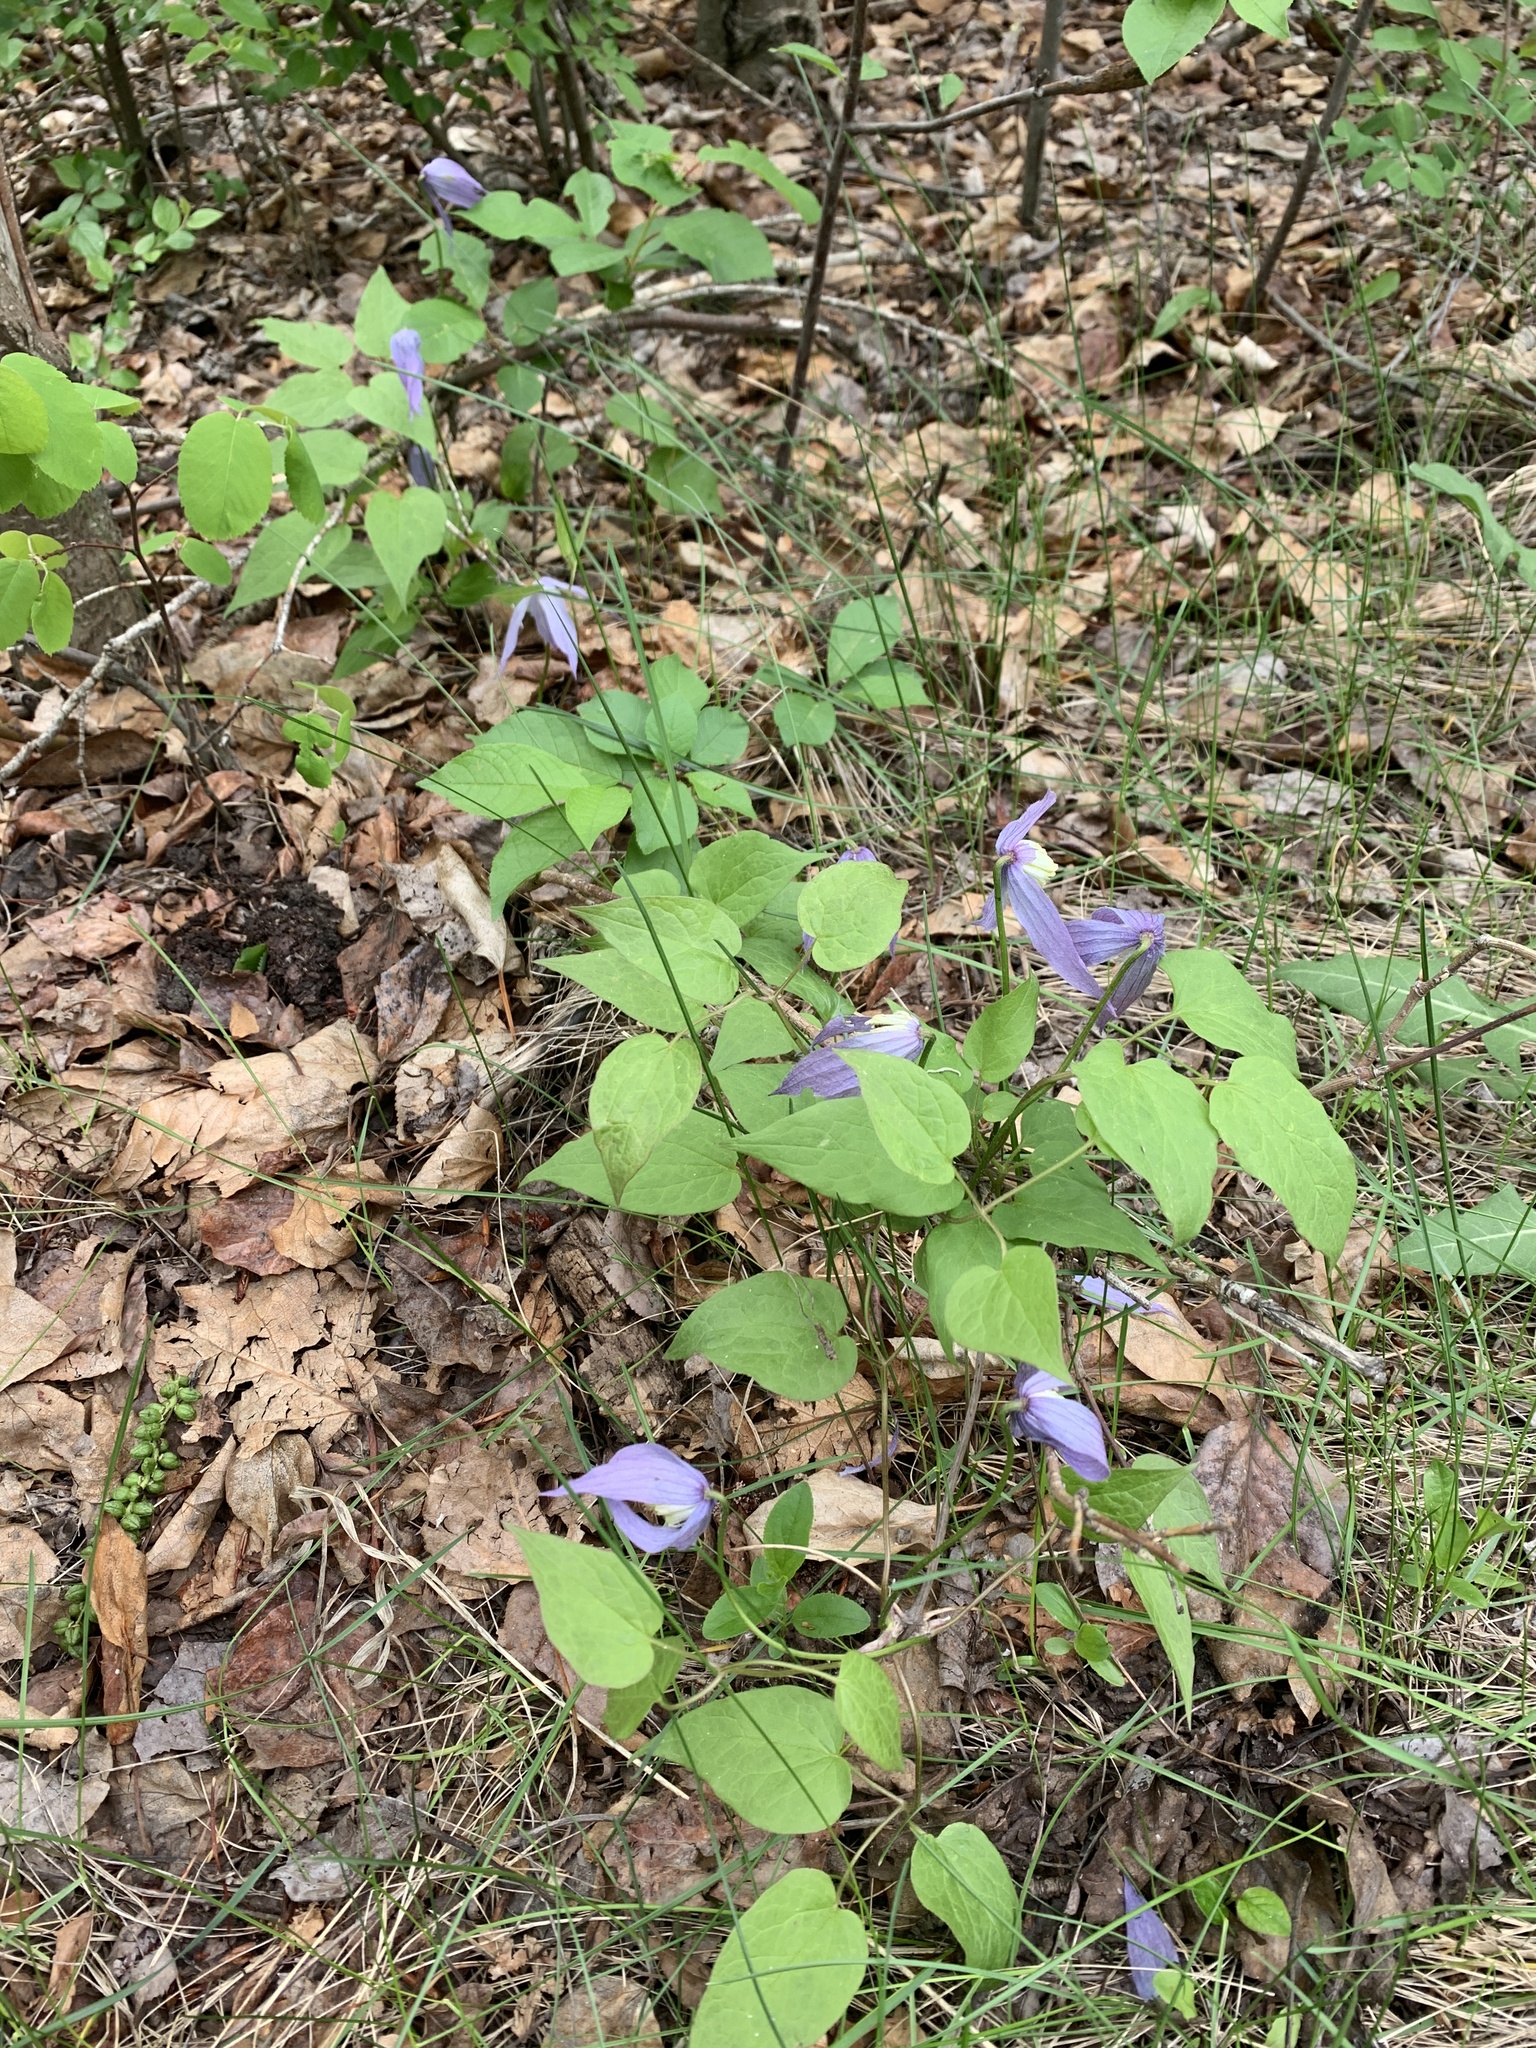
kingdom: Plantae
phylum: Tracheophyta
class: Magnoliopsida
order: Ranunculales
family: Ranunculaceae
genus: Clematis
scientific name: Clematis occidentalis
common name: Purple clematis
